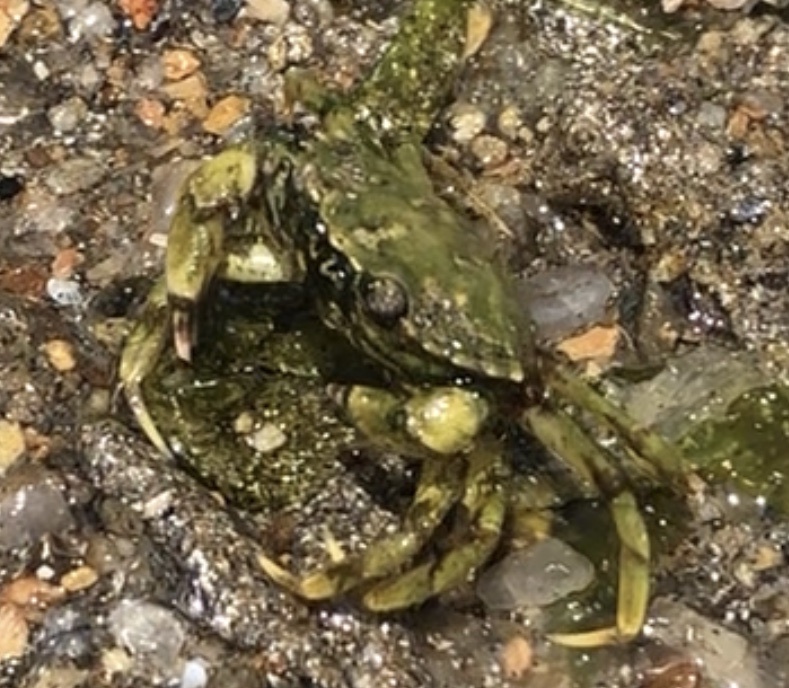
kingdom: Animalia
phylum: Arthropoda
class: Malacostraca
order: Decapoda
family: Carcinidae
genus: Carcinus
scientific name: Carcinus maenas
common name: European green crab
